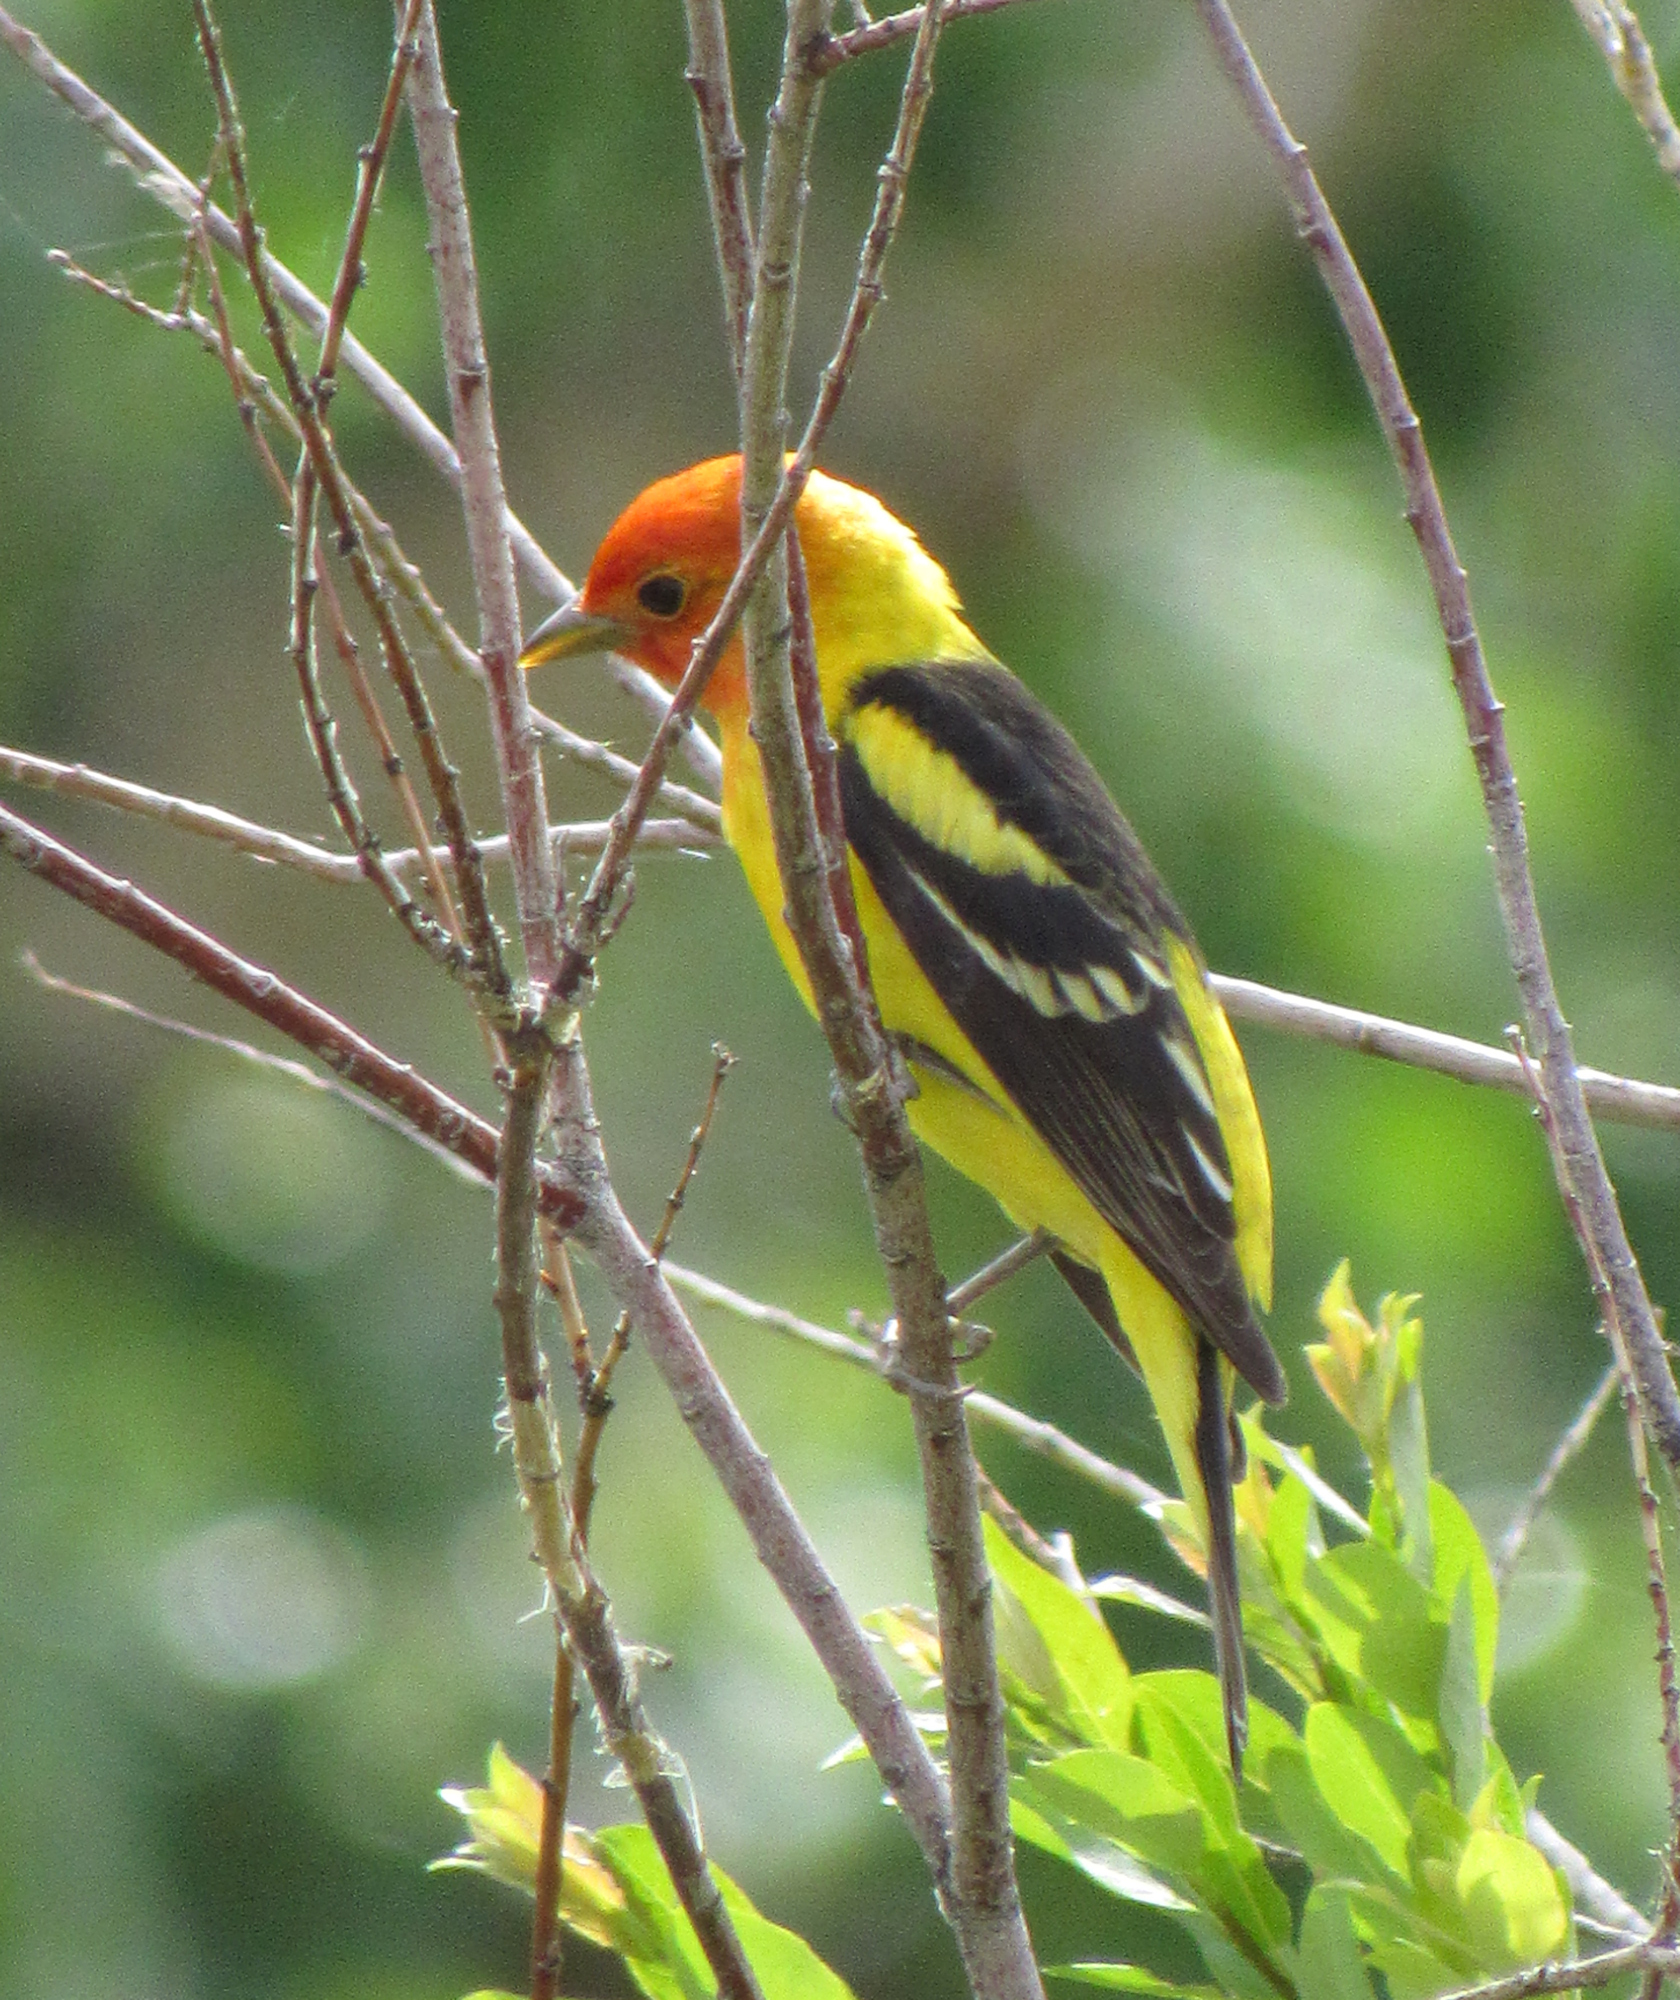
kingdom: Animalia
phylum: Chordata
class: Aves
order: Passeriformes
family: Cardinalidae
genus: Piranga
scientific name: Piranga ludoviciana
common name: Western tanager
